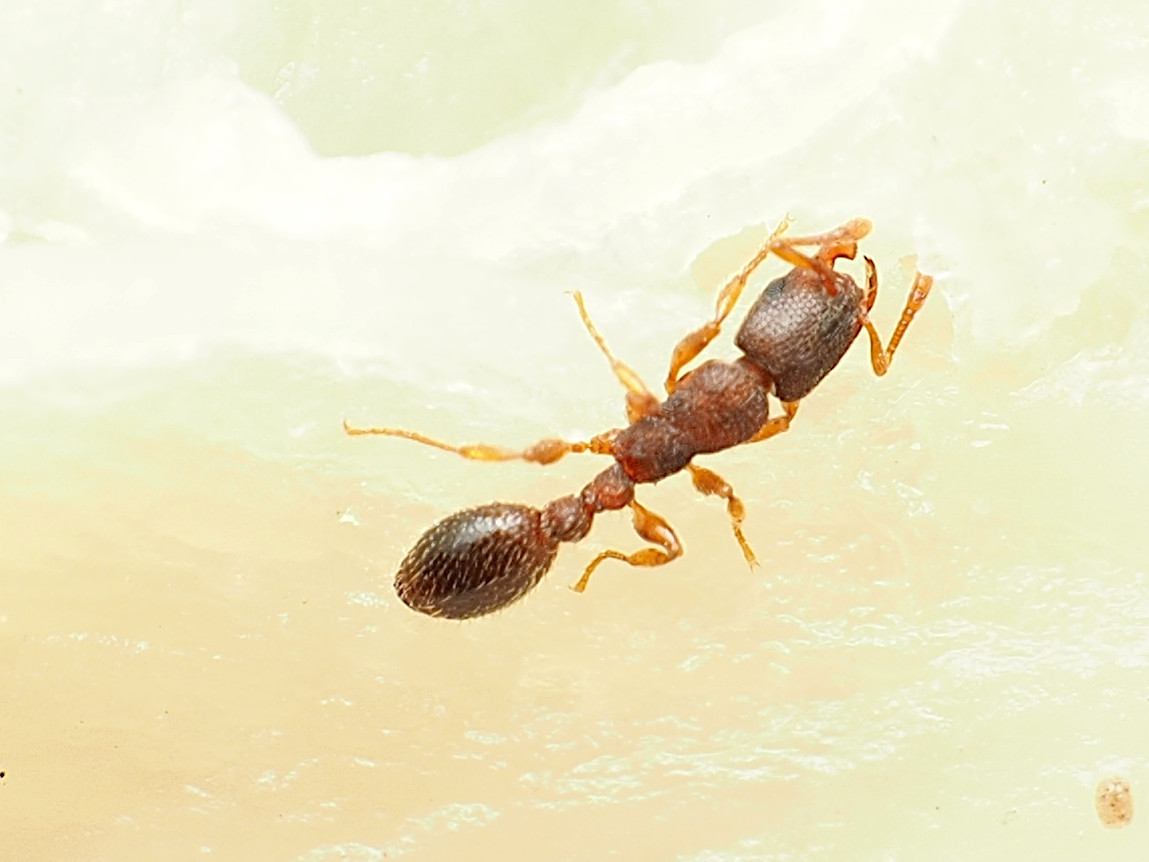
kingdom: Animalia
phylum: Arthropoda
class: Insecta
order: Hymenoptera
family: Formicidae
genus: Vollenhovia
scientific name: Vollenhovia emeryi
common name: Ant
